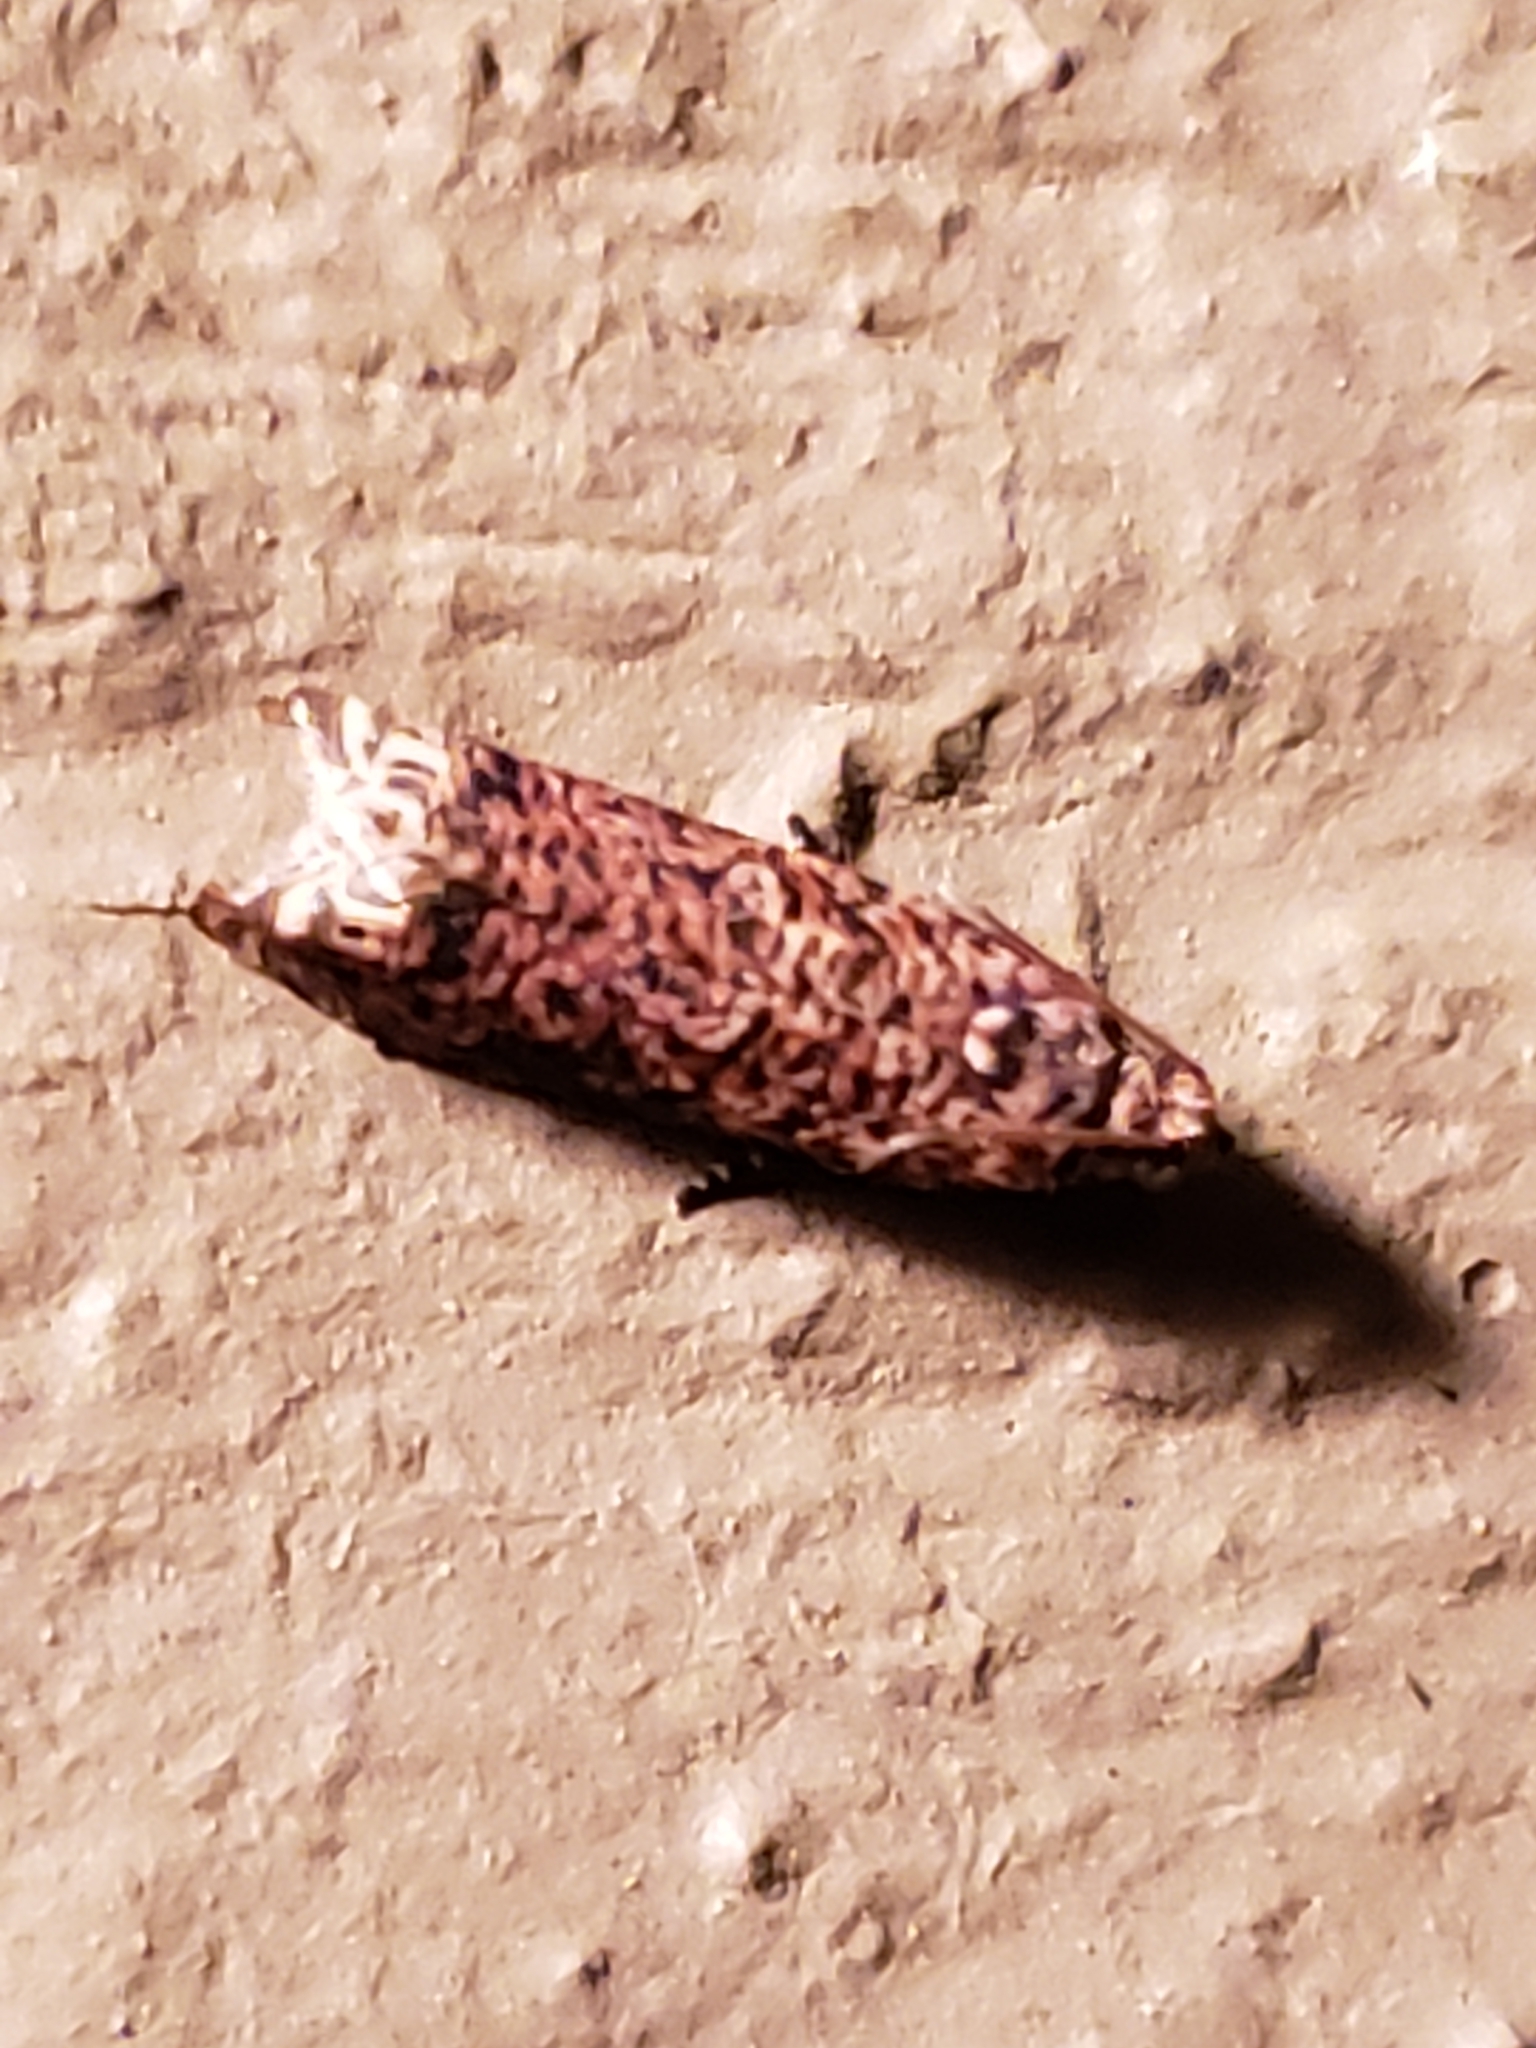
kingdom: Animalia
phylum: Arthropoda
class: Insecta
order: Lepidoptera
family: Tortricidae
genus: Episimus
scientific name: Episimus argutana
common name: Sumac leaftier moth
